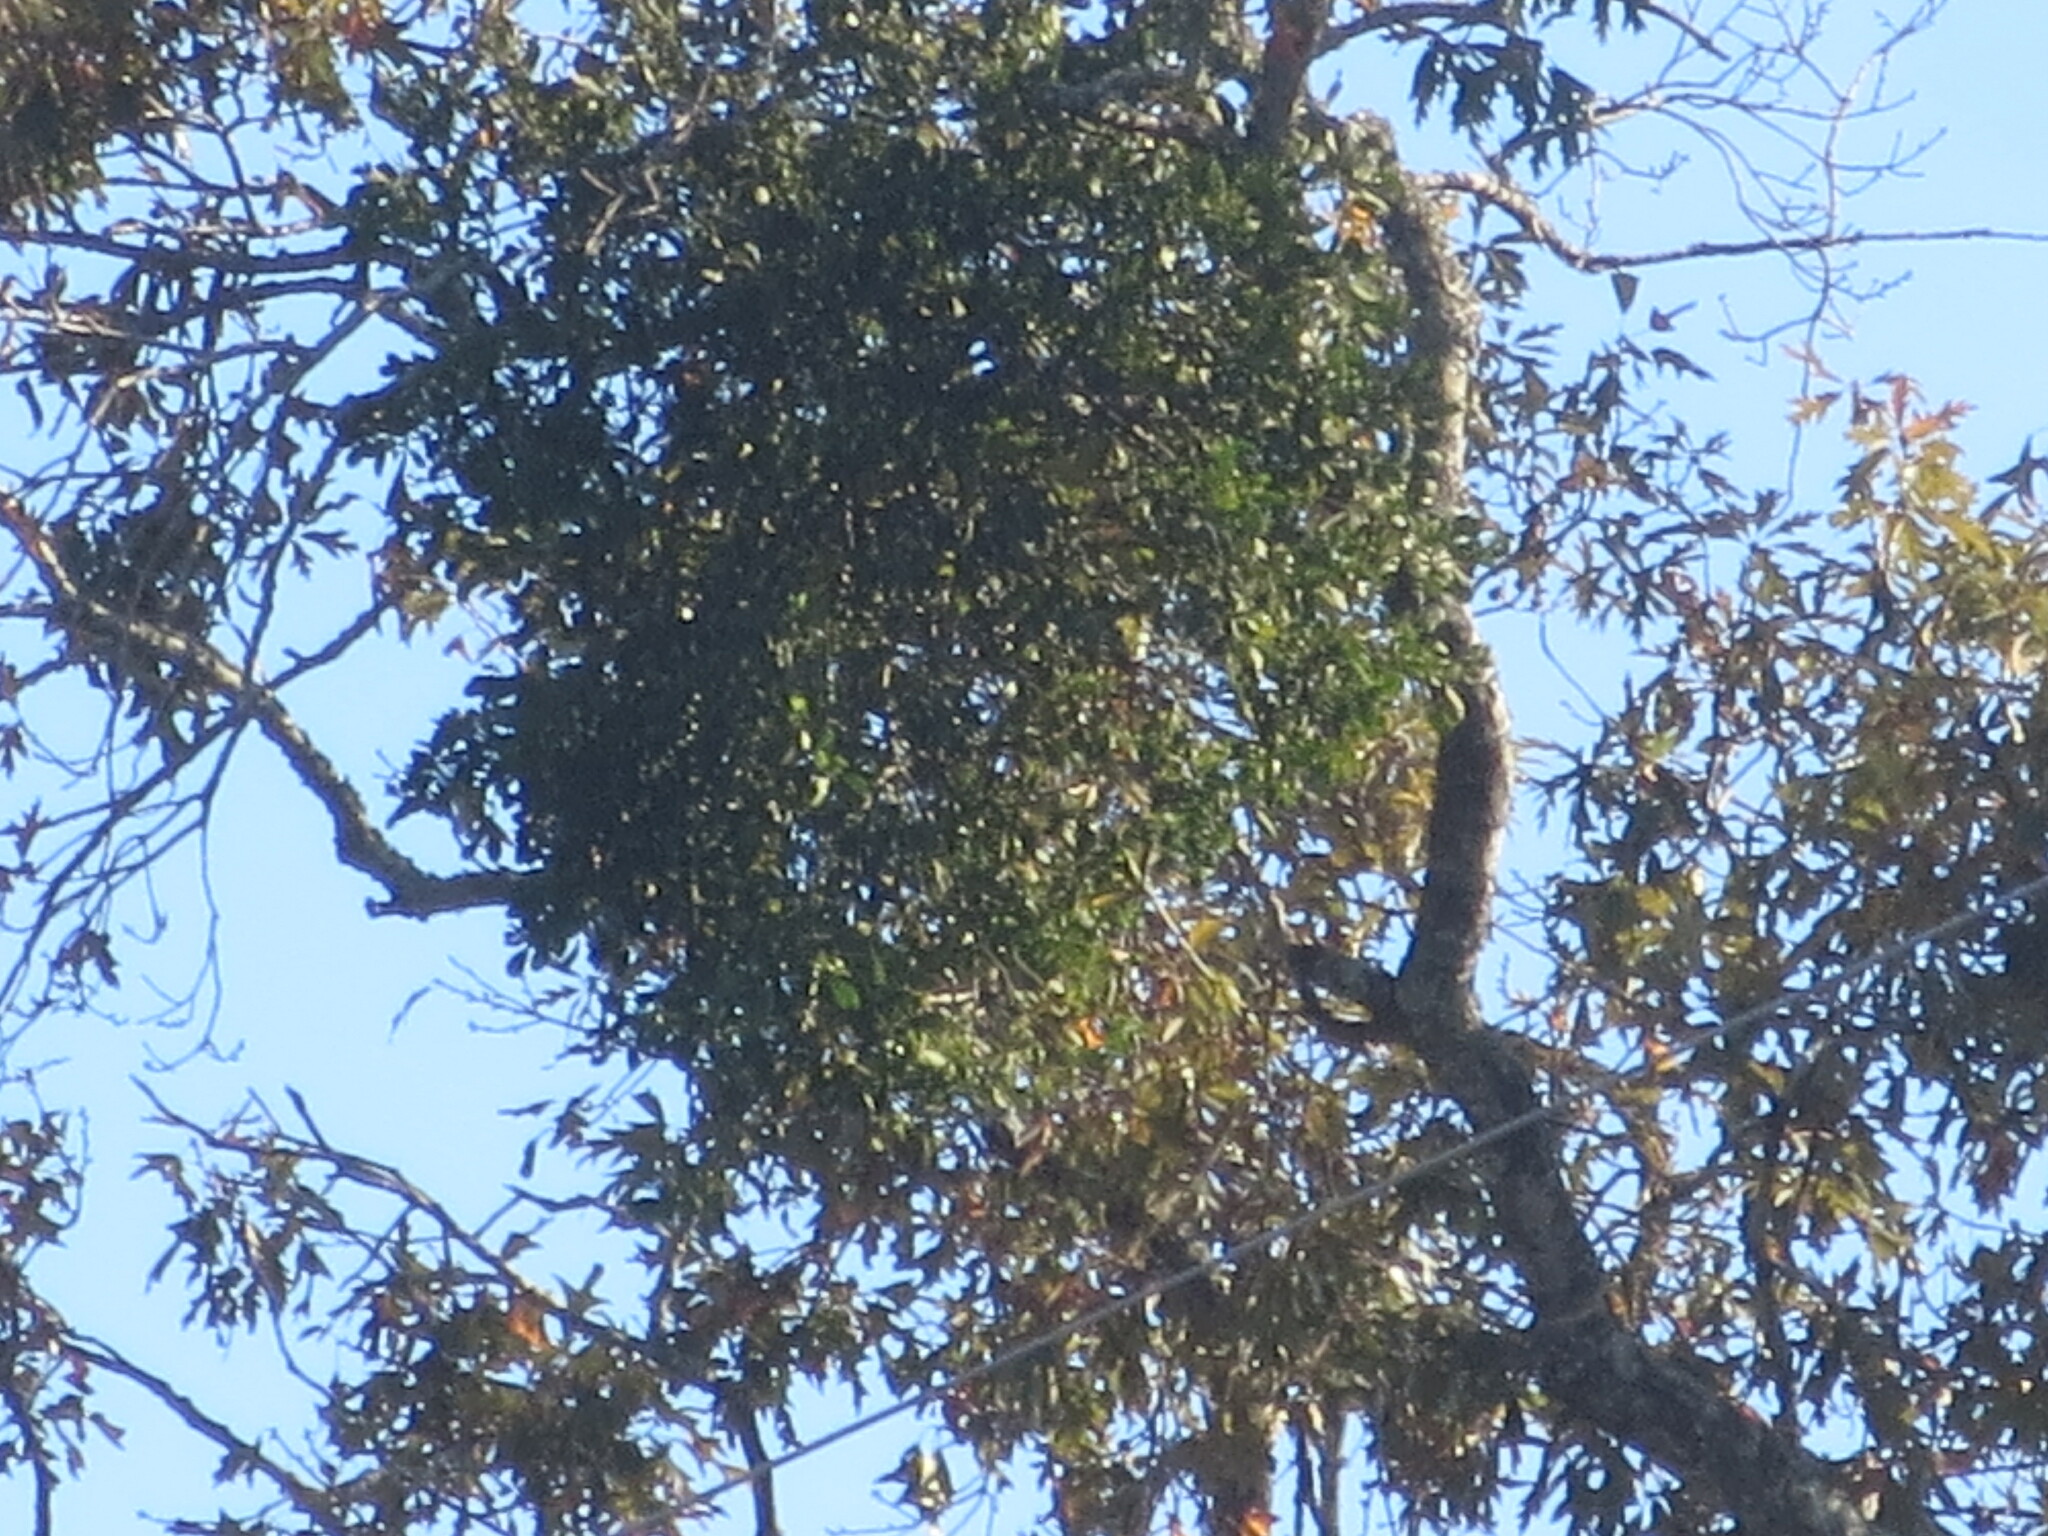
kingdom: Plantae
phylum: Tracheophyta
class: Magnoliopsida
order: Santalales
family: Viscaceae
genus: Phoradendron
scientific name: Phoradendron leucarpum
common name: Pacific mistletoe
